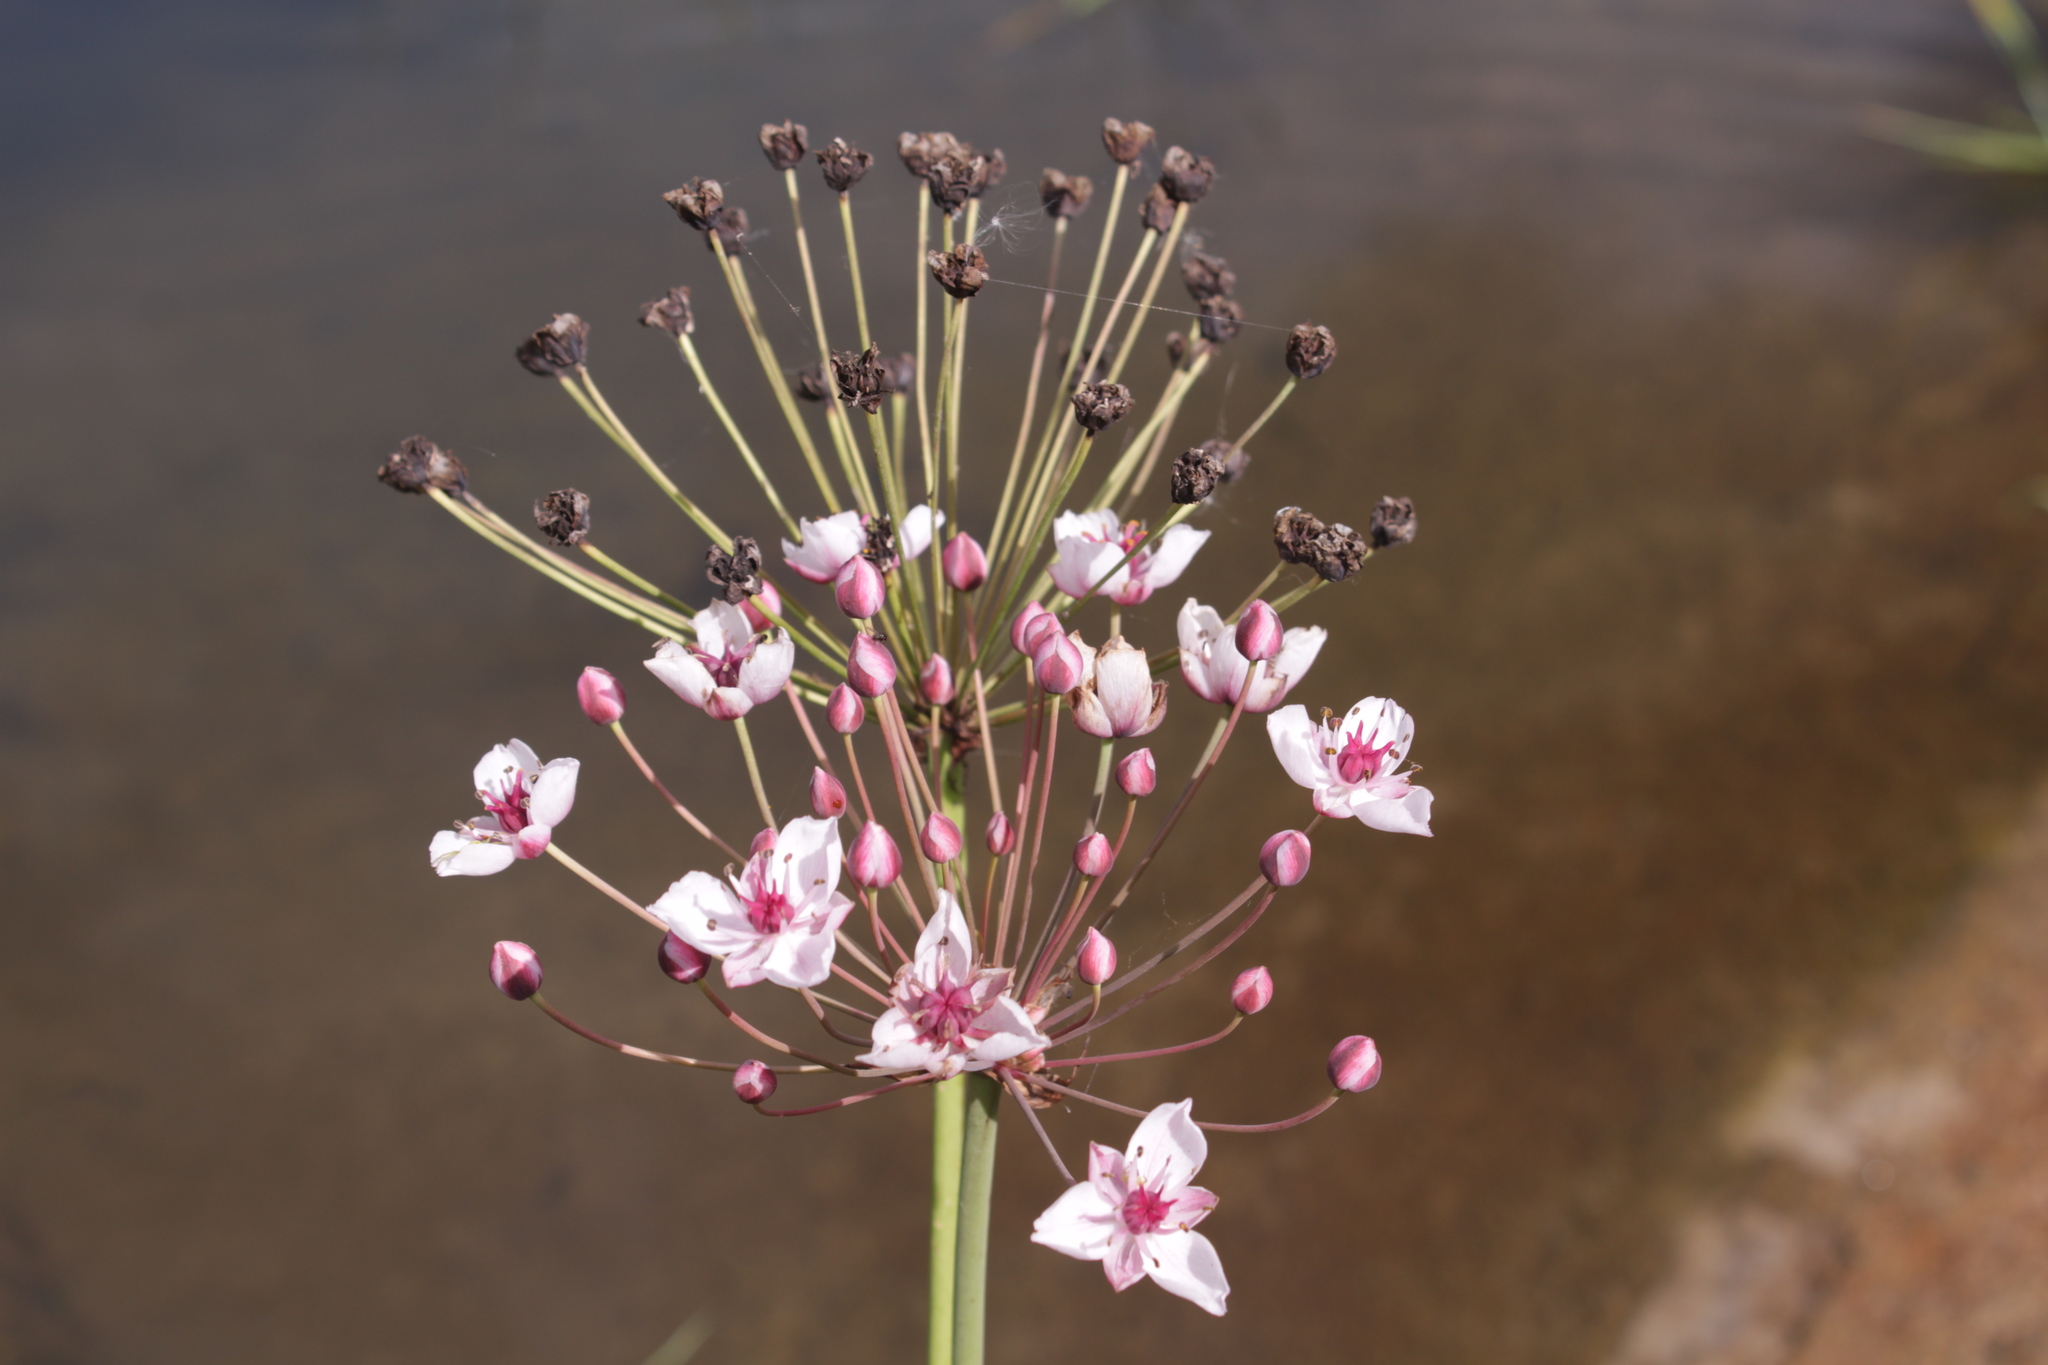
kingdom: Plantae
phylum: Tracheophyta
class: Liliopsida
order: Alismatales
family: Butomaceae
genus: Butomus
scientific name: Butomus umbellatus
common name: Flowering-rush
